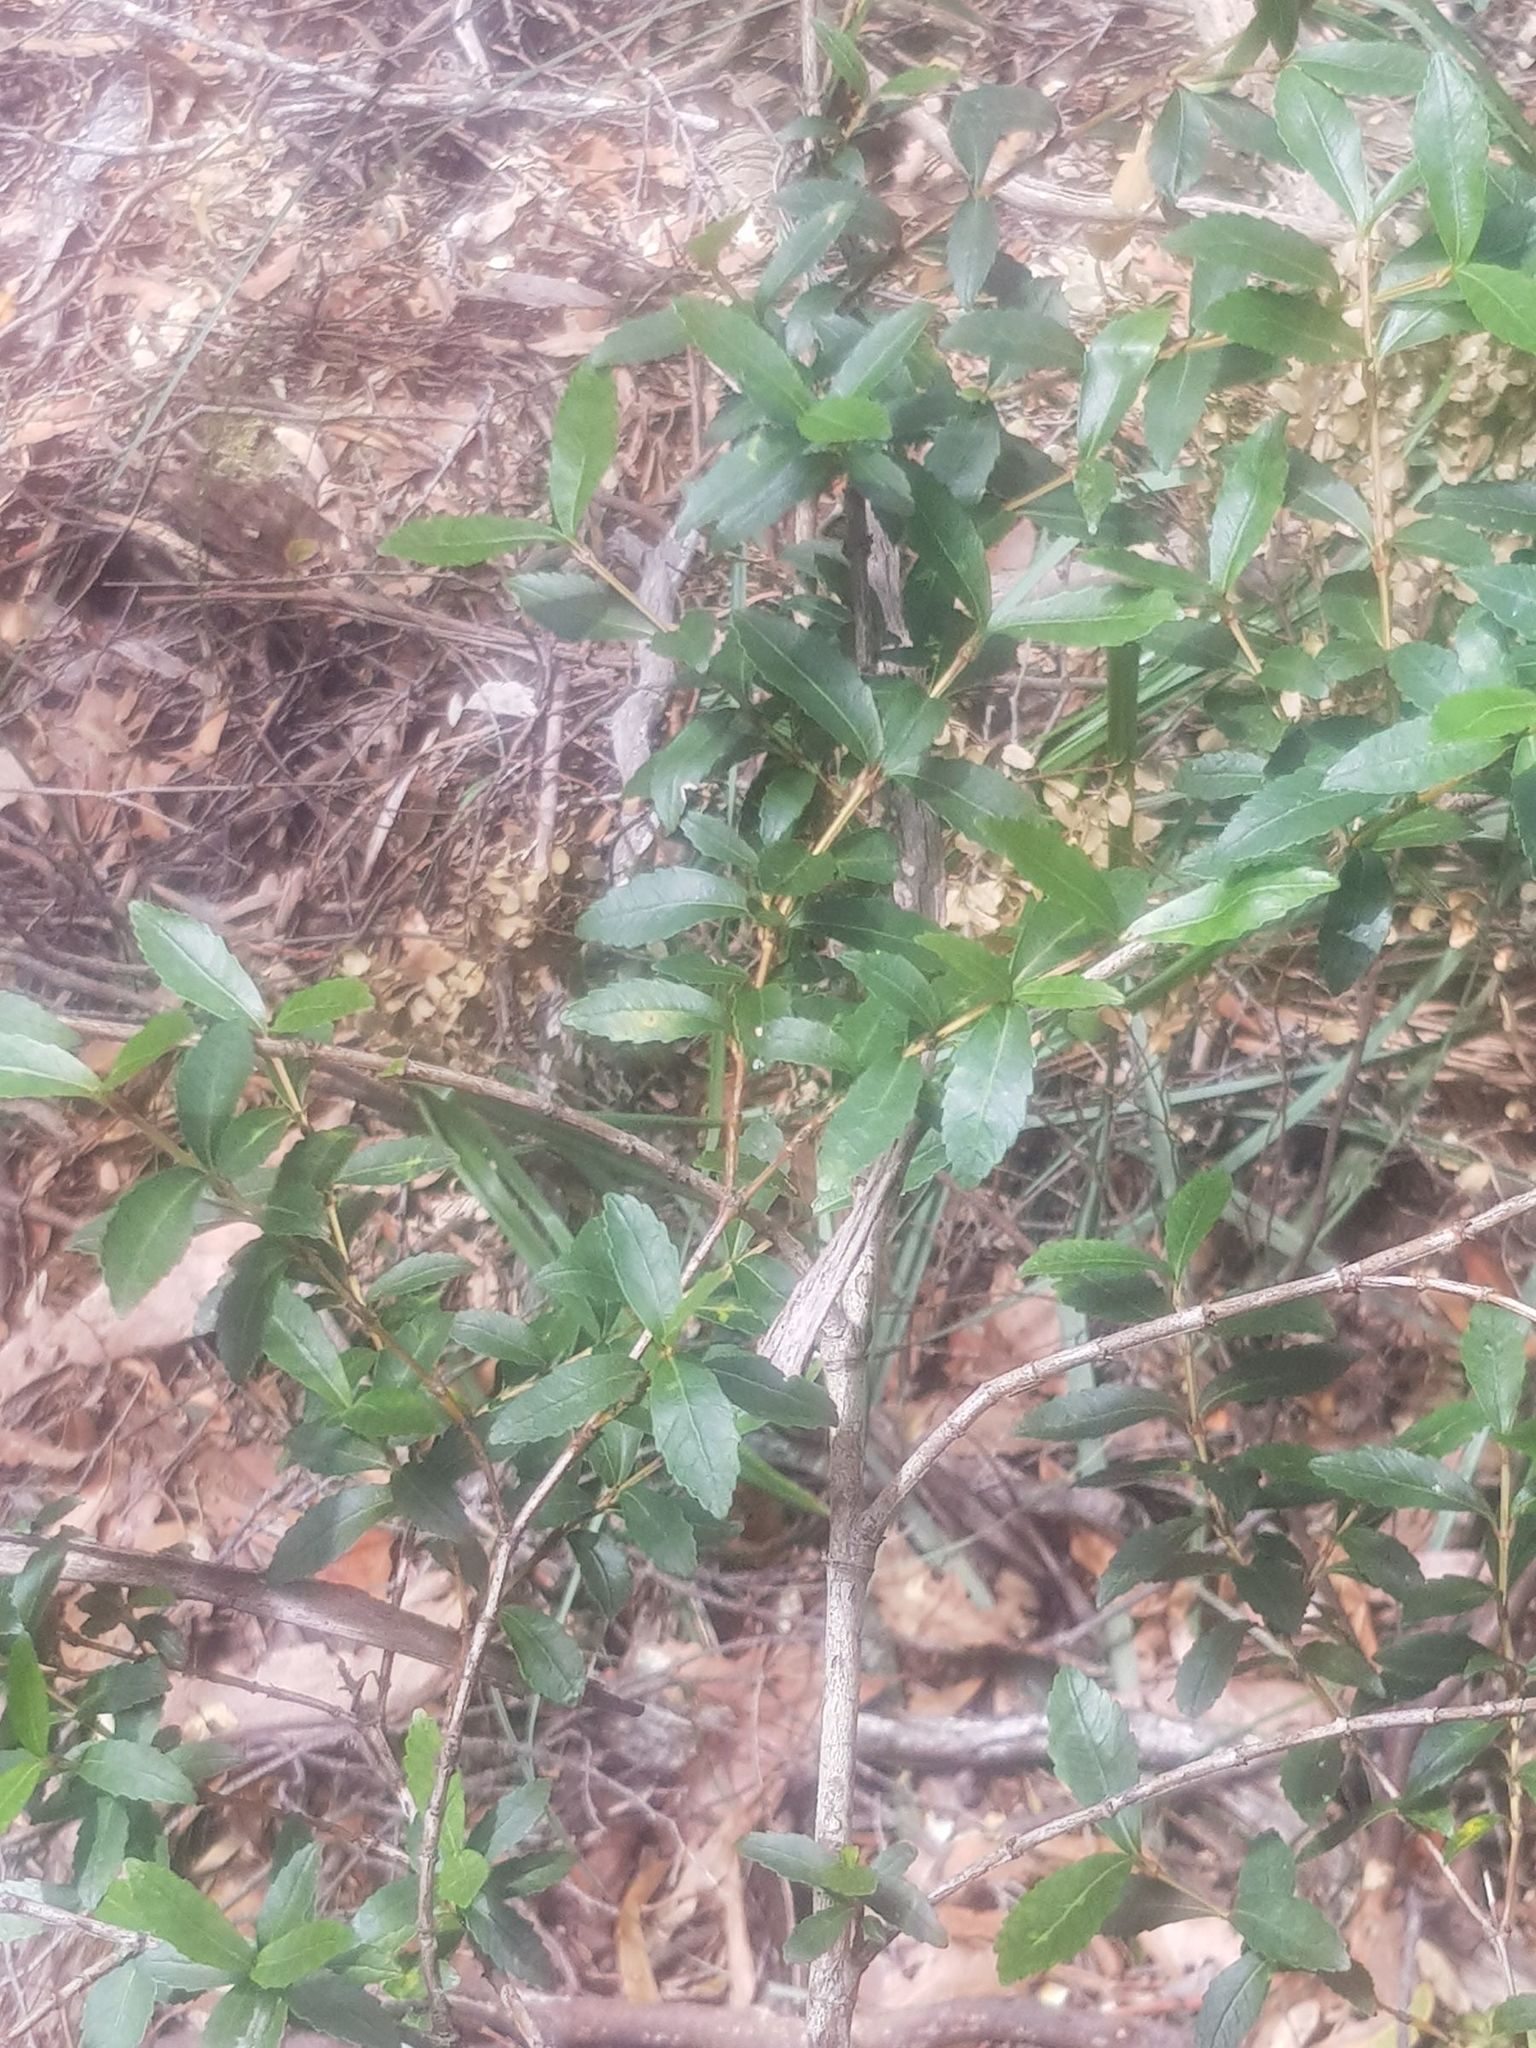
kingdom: Plantae
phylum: Tracheophyta
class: Magnoliopsida
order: Oxalidales
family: Cunoniaceae
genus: Anodopetalum
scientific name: Anodopetalum biglandulosum
